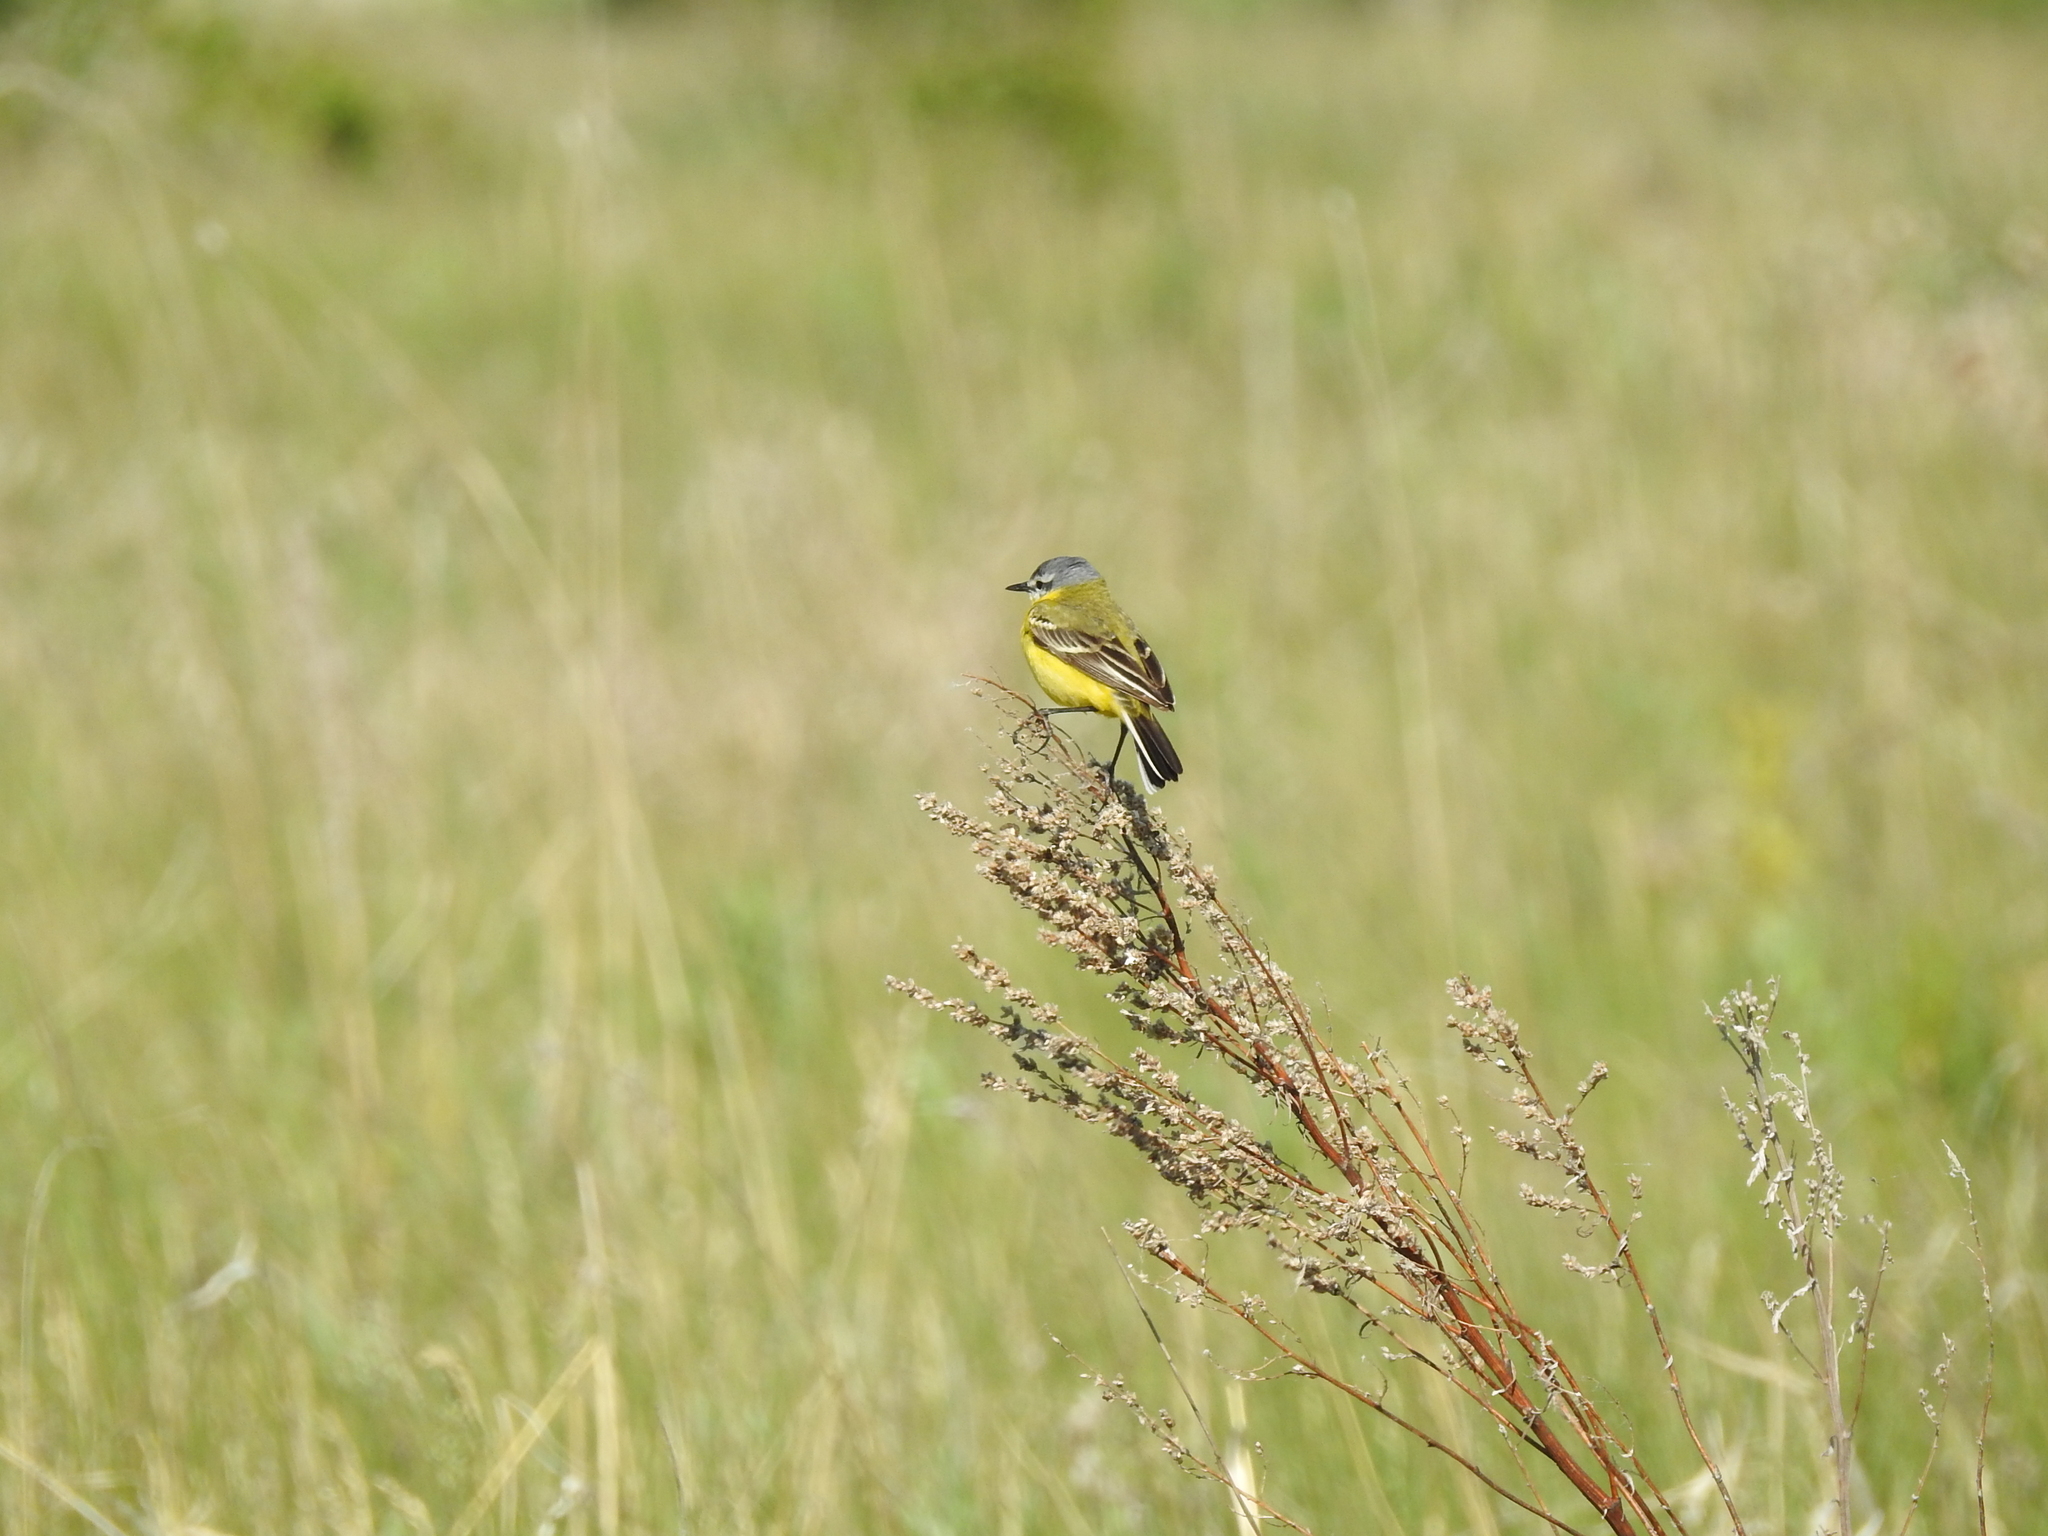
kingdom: Animalia
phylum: Chordata
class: Aves
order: Passeriformes
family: Motacillidae
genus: Motacilla
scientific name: Motacilla flava
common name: Western yellow wagtail
